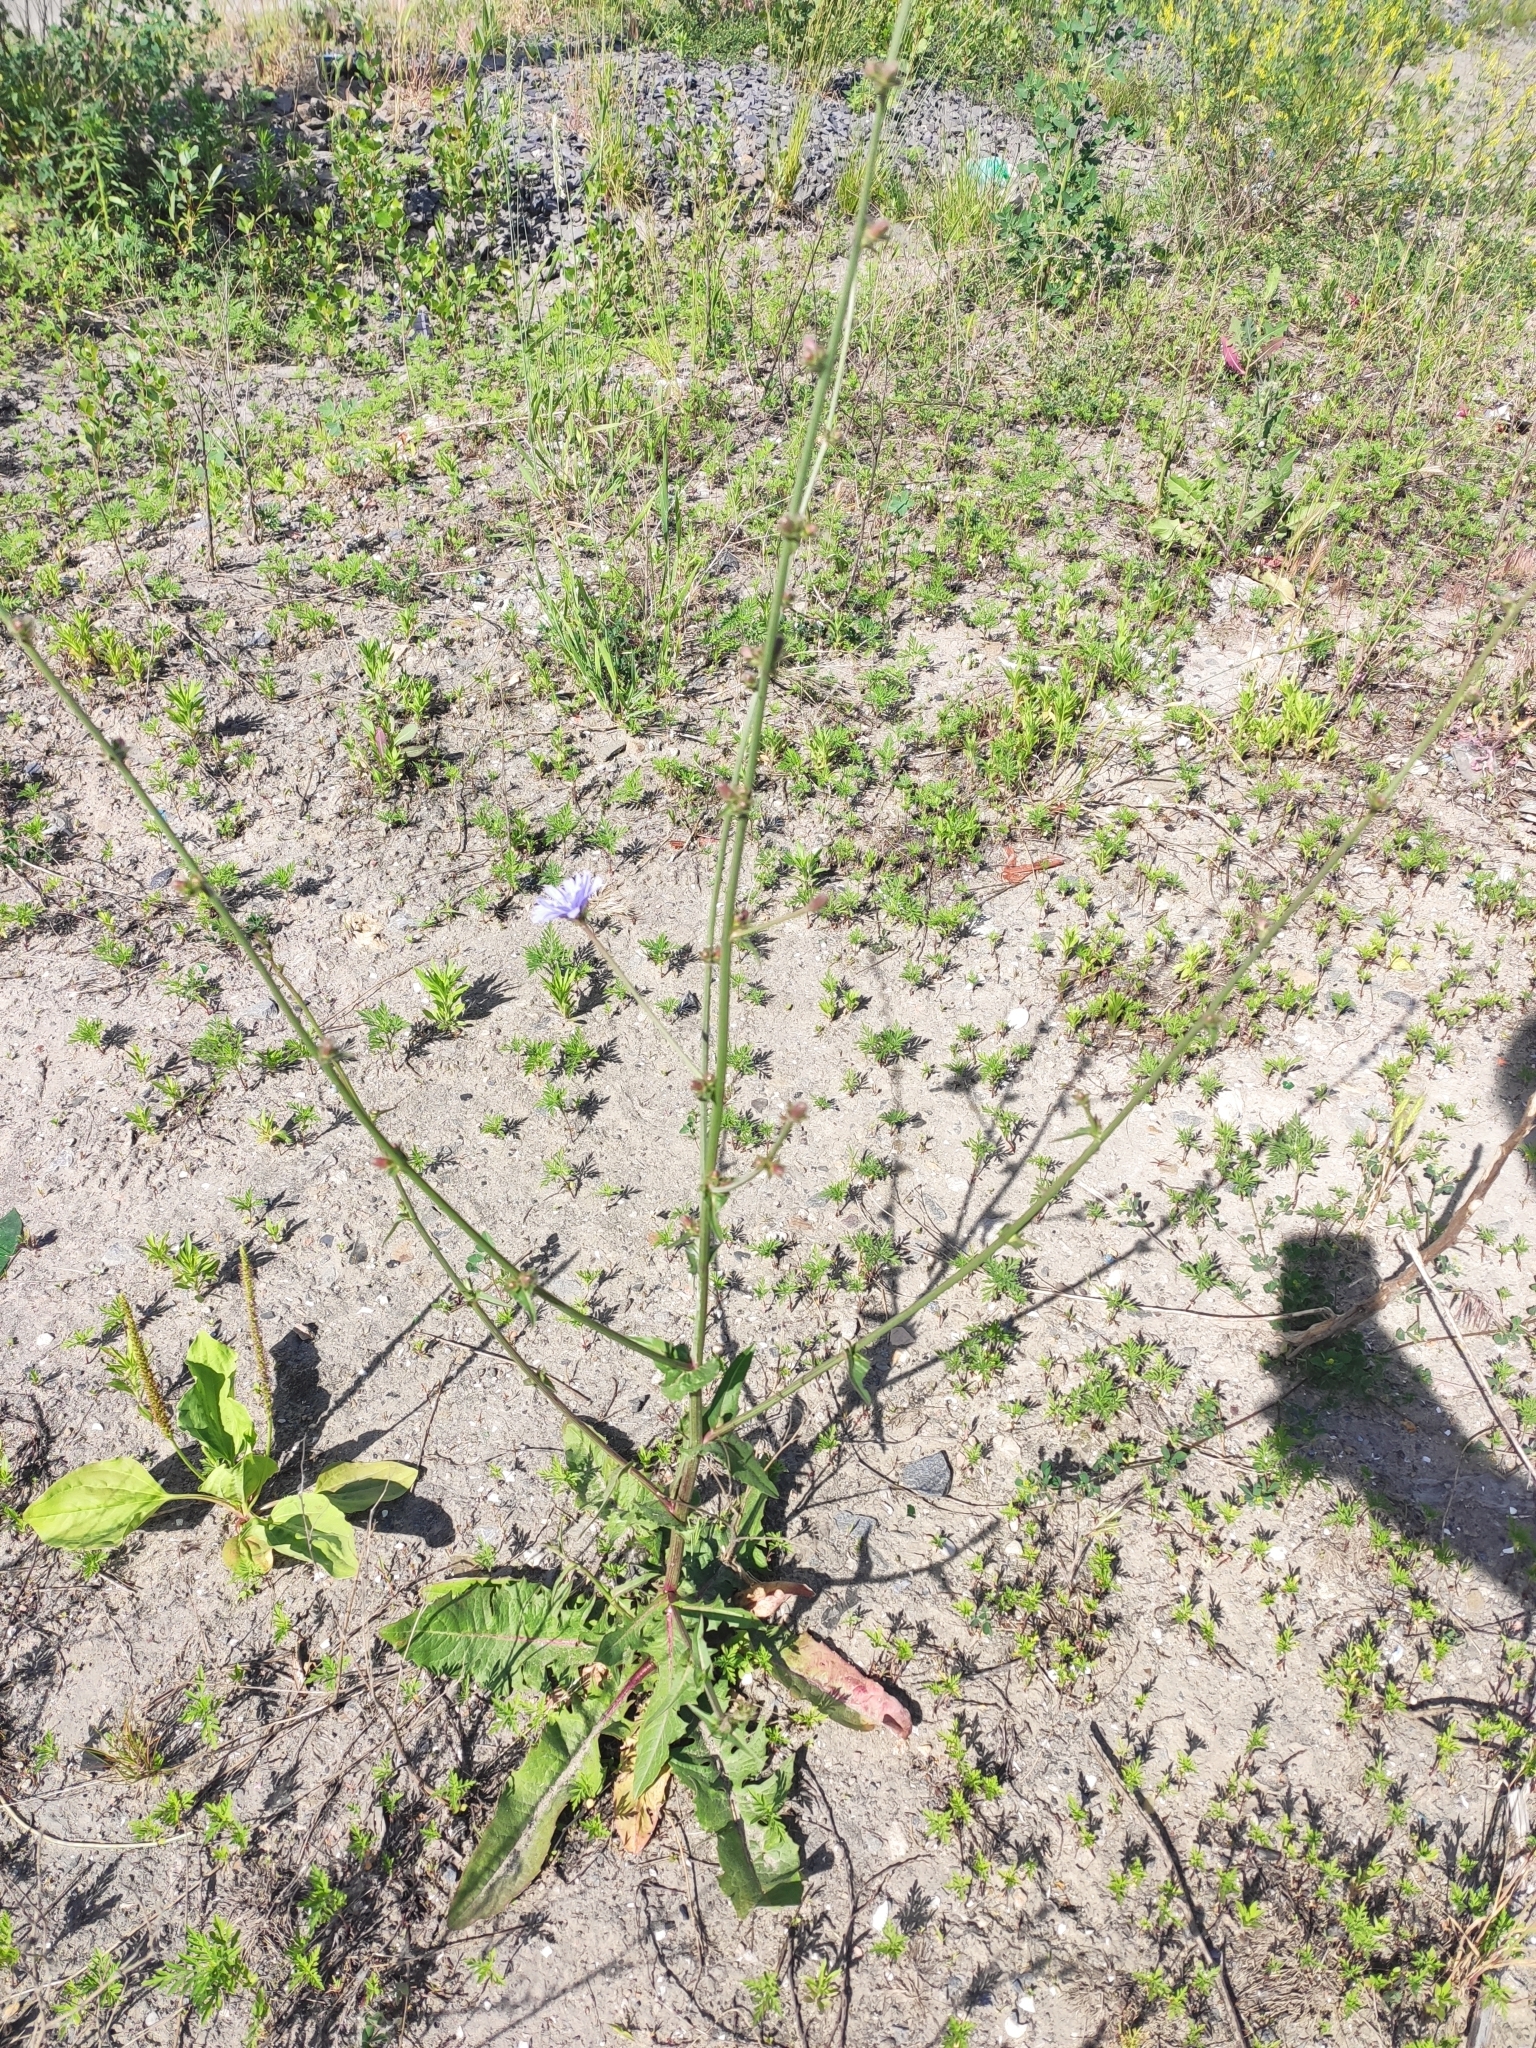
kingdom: Plantae
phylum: Tracheophyta
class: Magnoliopsida
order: Asterales
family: Asteraceae
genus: Cichorium
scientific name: Cichorium intybus
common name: Chicory
